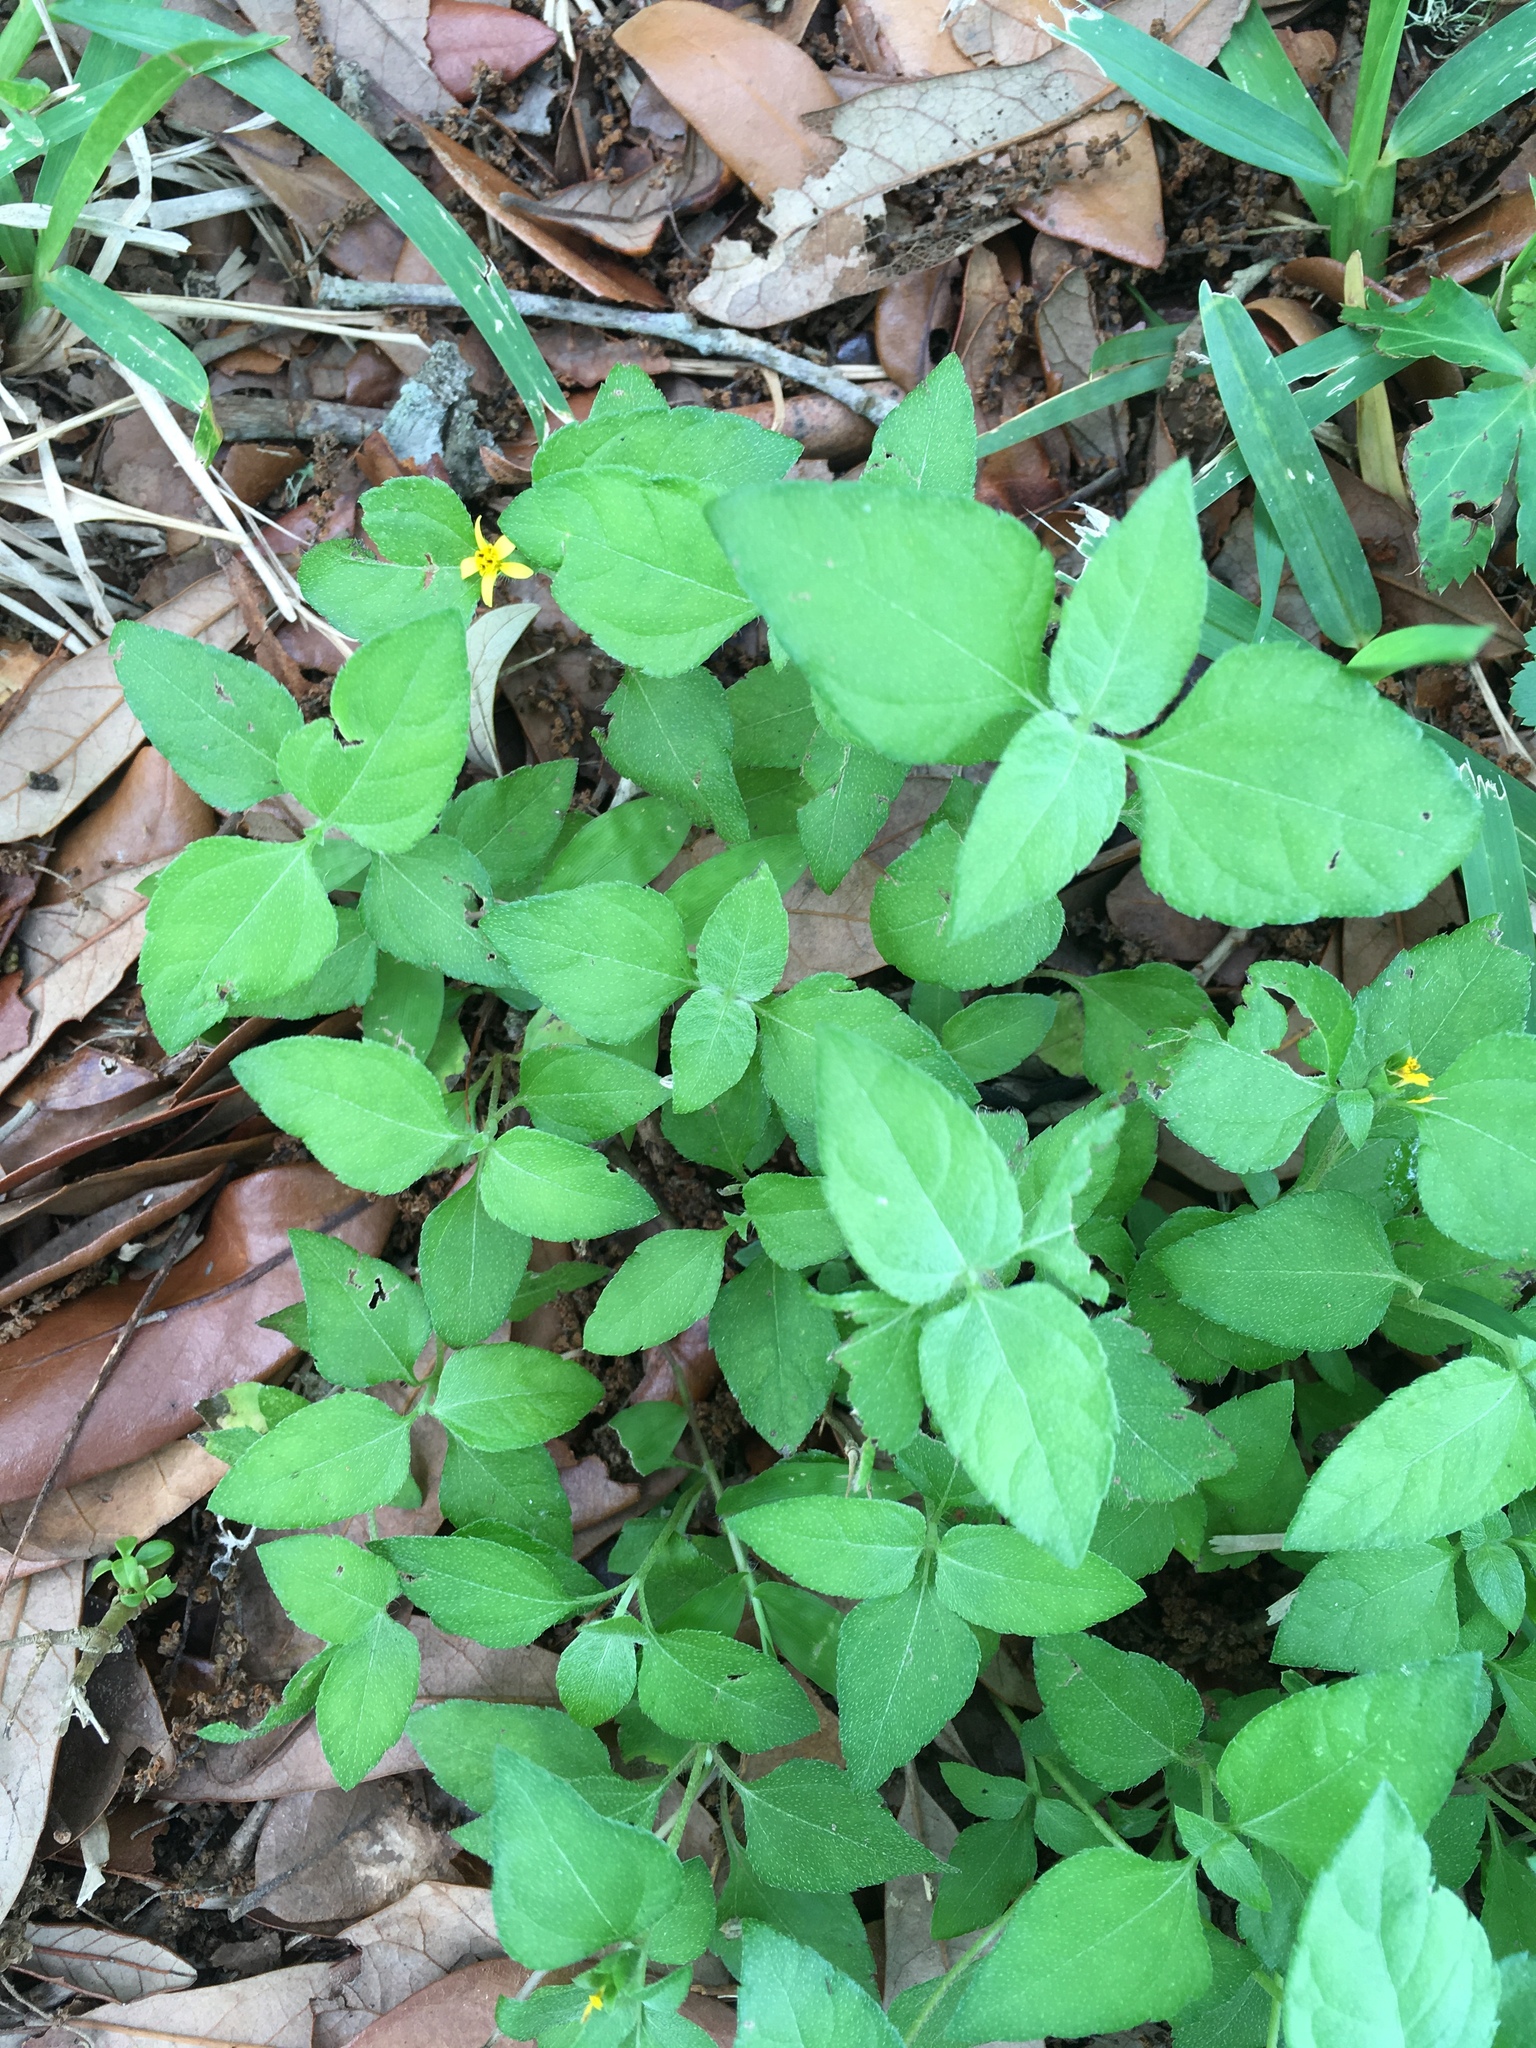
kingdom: Plantae
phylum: Tracheophyta
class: Magnoliopsida
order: Asterales
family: Asteraceae
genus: Calyptocarpus
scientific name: Calyptocarpus vialis
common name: Straggler daisy
